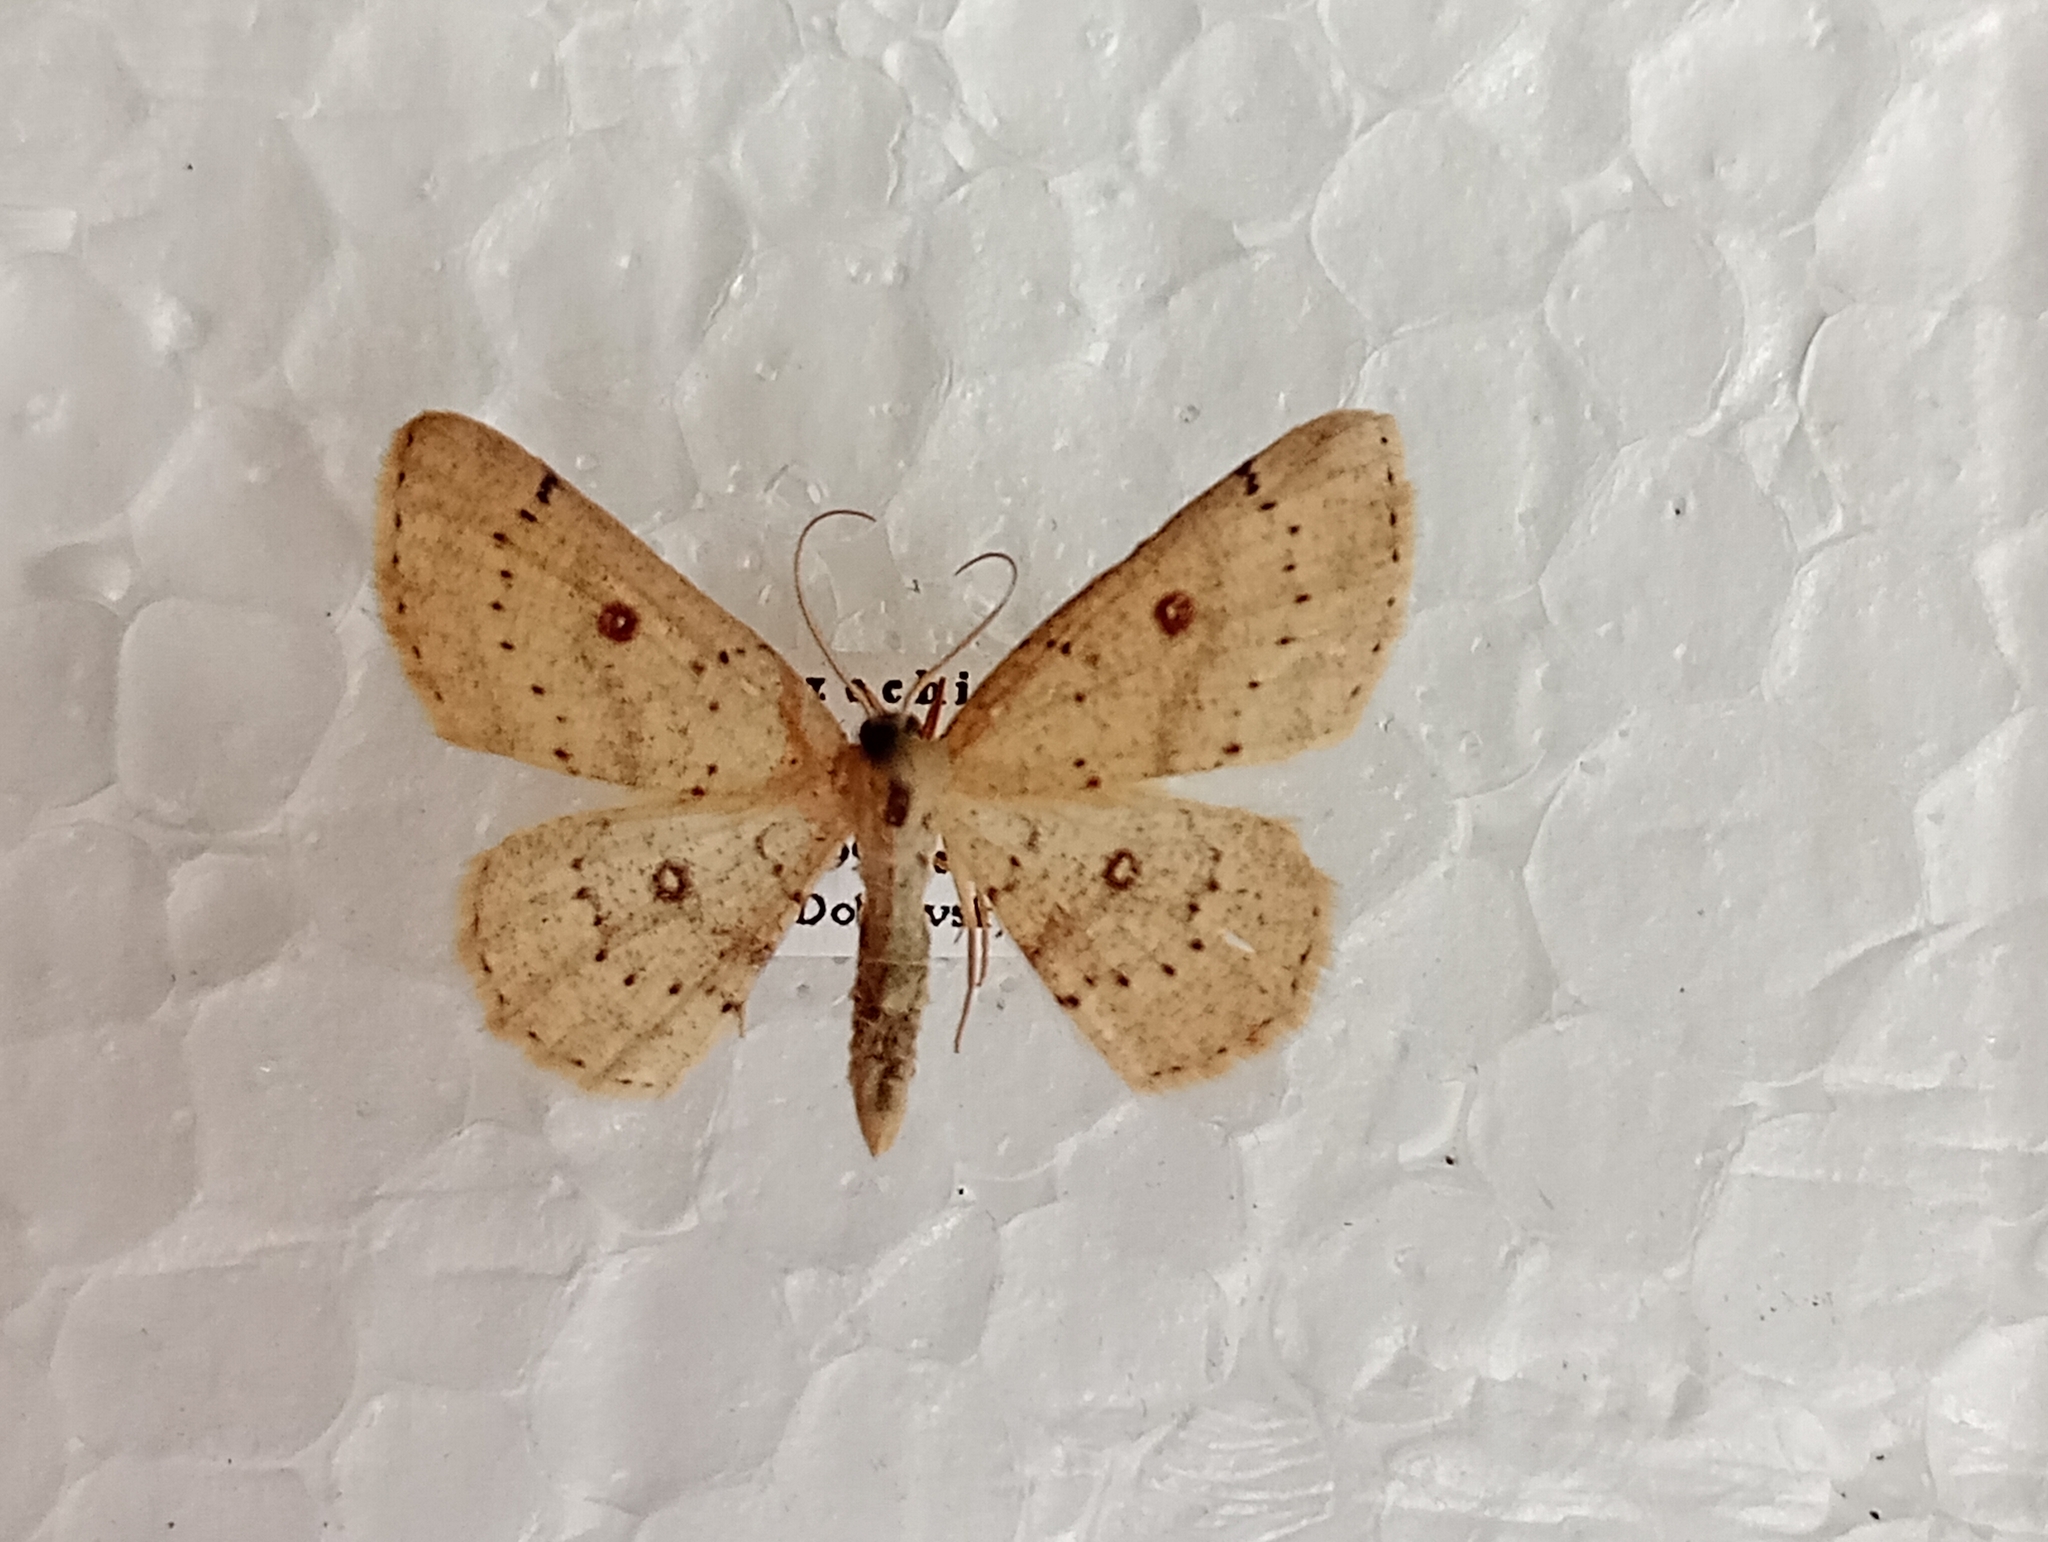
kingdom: Animalia
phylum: Arthropoda
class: Insecta
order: Lepidoptera
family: Geometridae
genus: Cyclophora
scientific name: Cyclophora albipunctata
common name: Birch mocha
